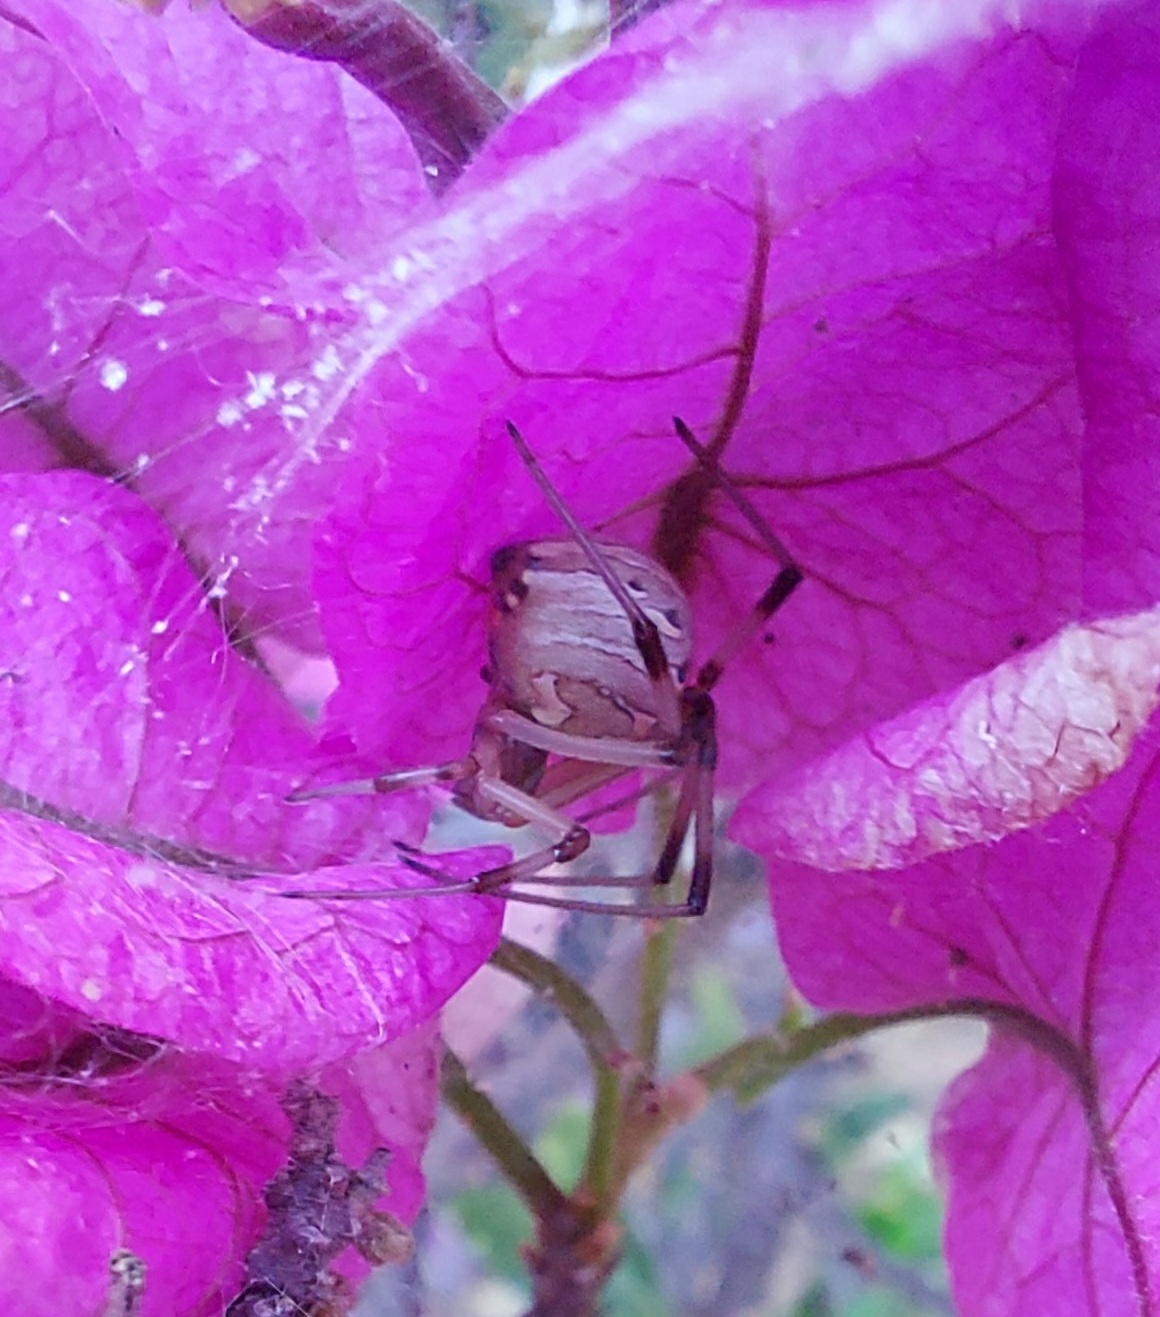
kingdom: Animalia
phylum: Arthropoda
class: Arachnida
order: Araneae
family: Theridiidae
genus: Latrodectus
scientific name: Latrodectus geometricus
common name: Brown widow spider
